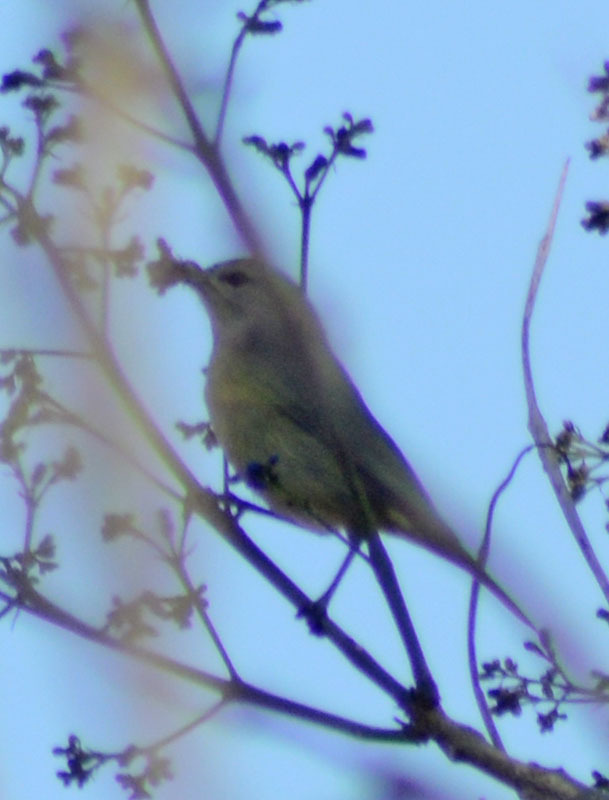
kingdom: Animalia
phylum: Chordata
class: Aves
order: Passeriformes
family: Parulidae
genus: Leiothlypis
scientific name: Leiothlypis celata
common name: Orange-crowned warbler
